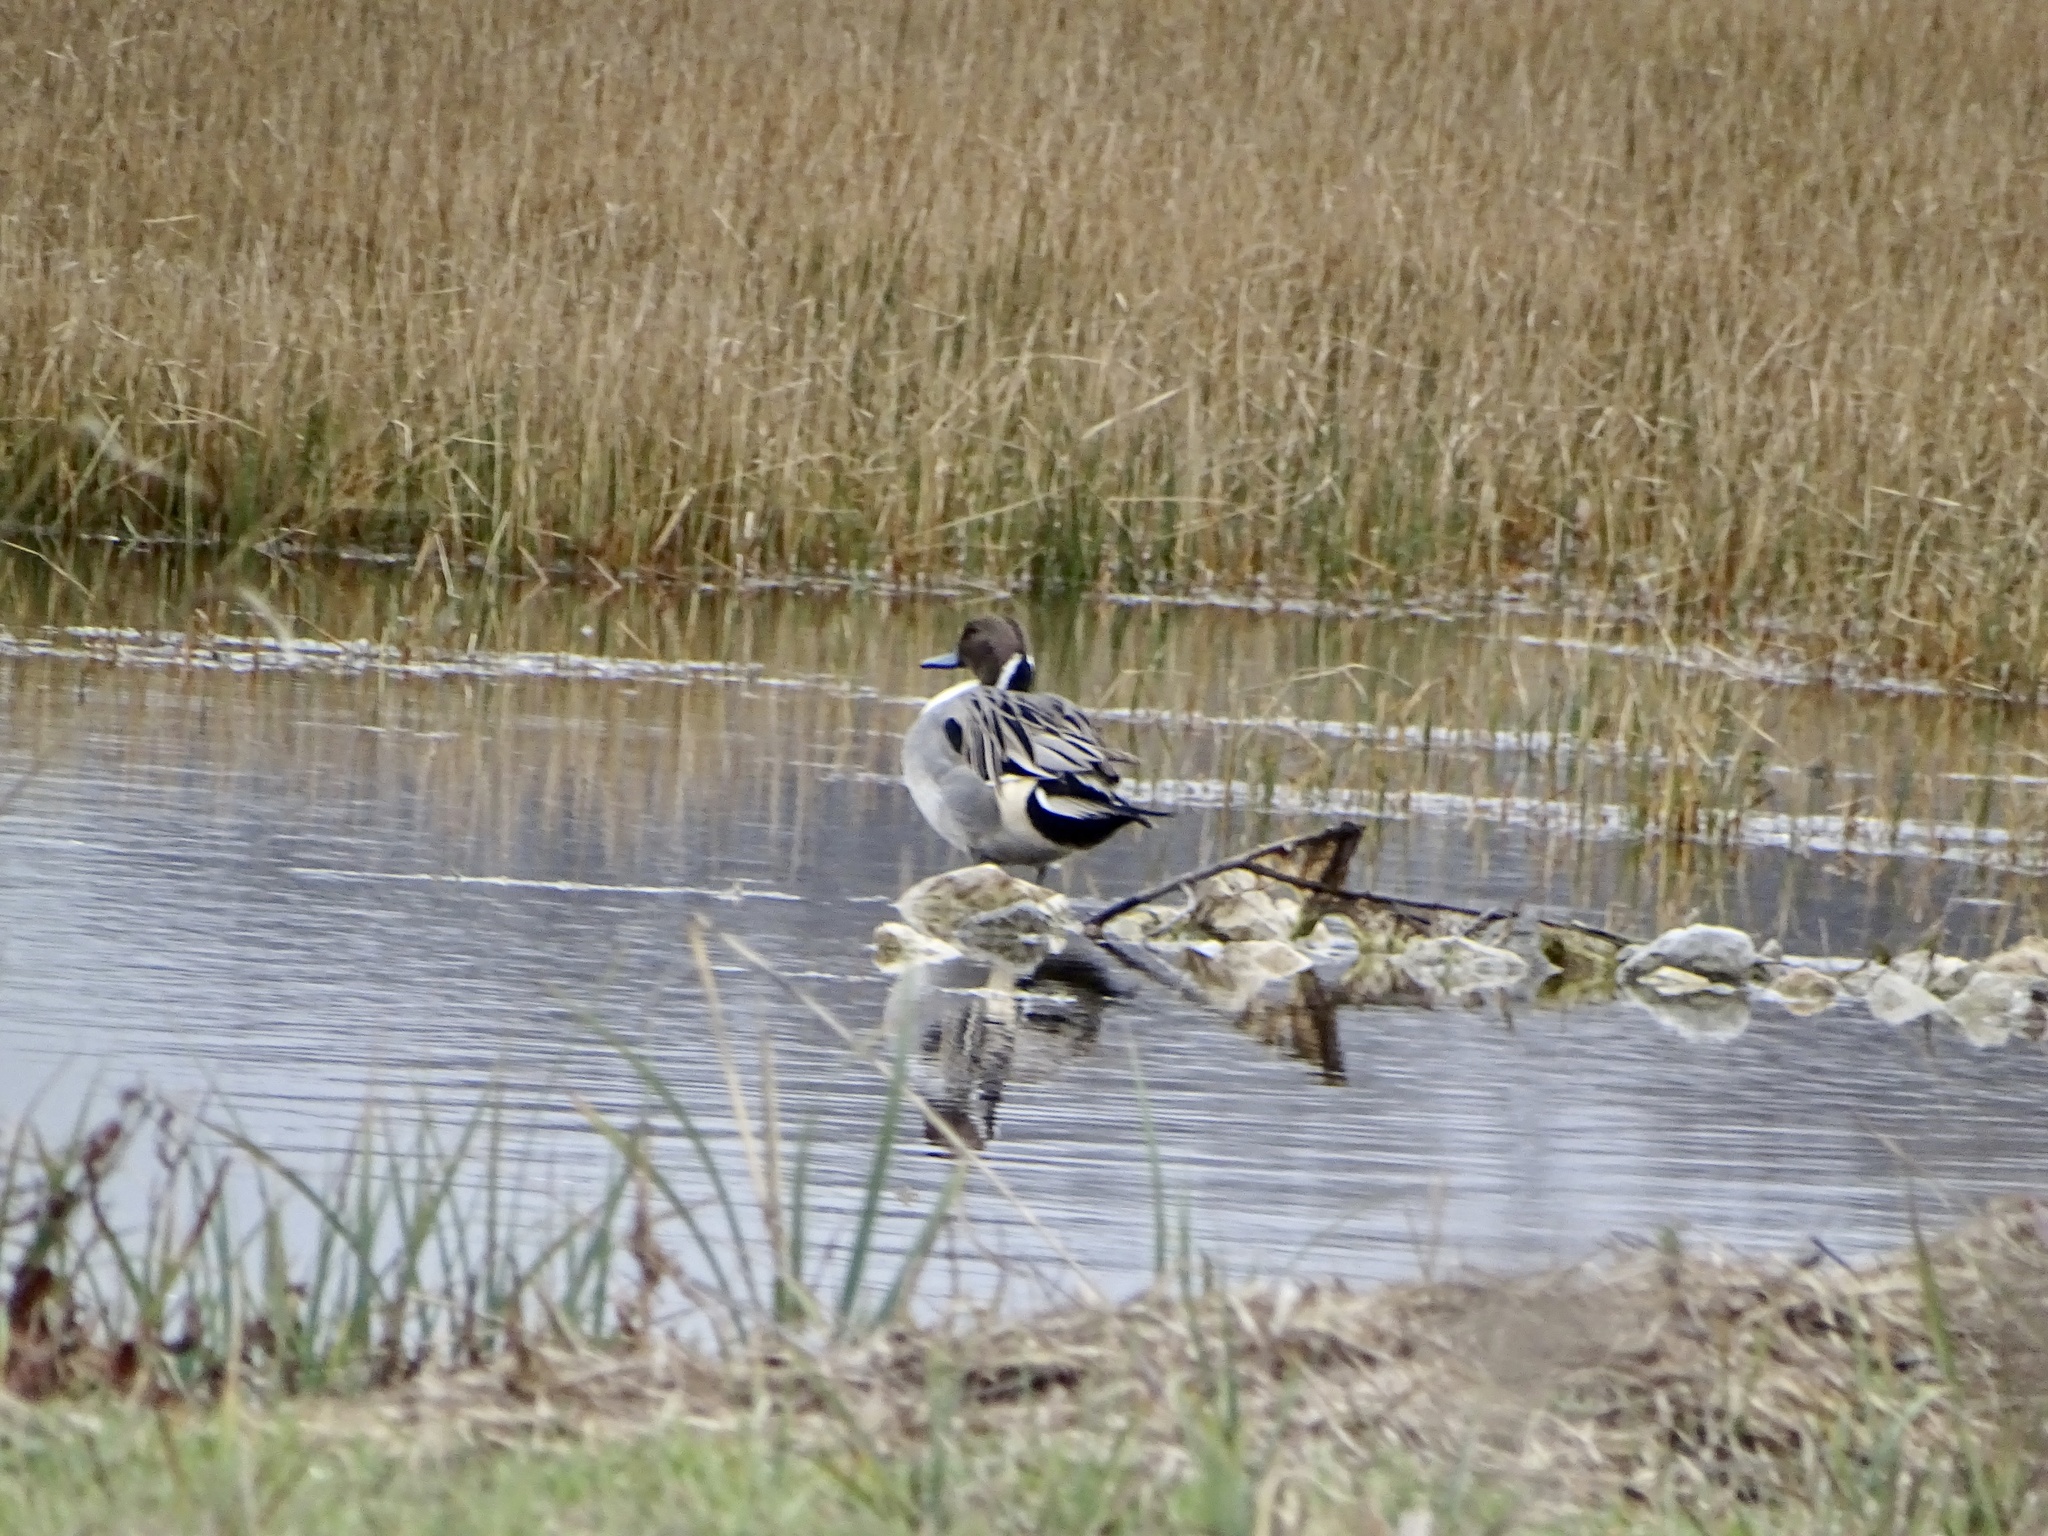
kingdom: Animalia
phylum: Chordata
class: Aves
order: Anseriformes
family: Anatidae
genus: Anas
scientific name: Anas acuta
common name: Northern pintail
